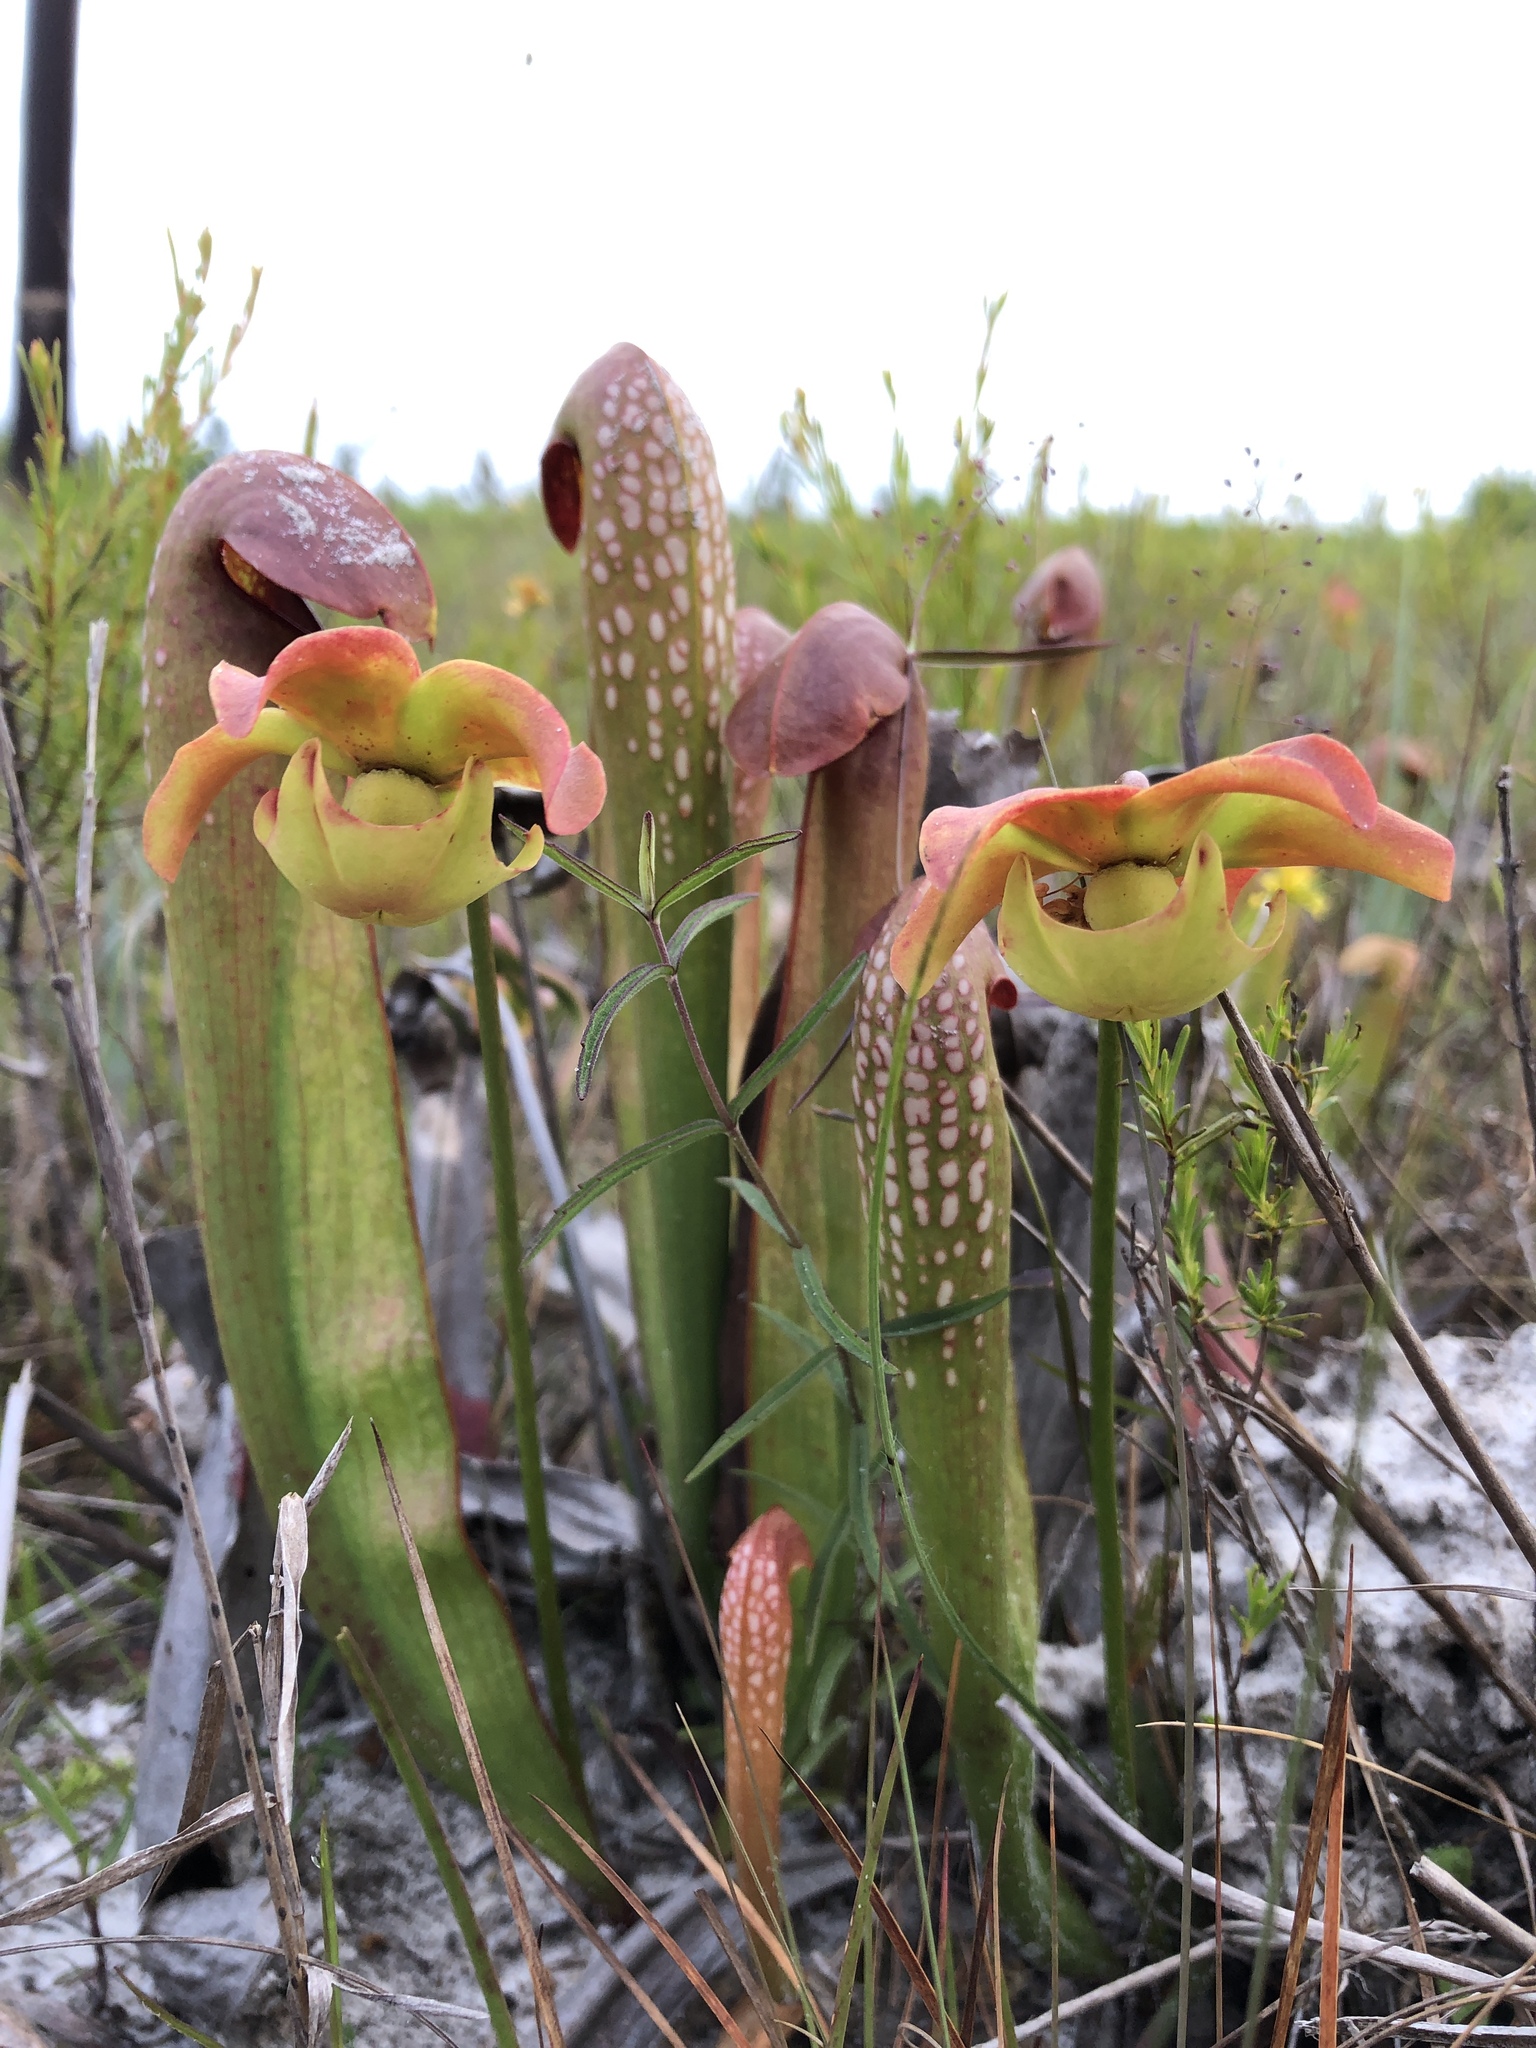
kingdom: Plantae
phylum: Tracheophyta
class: Magnoliopsida
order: Ericales
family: Sarraceniaceae
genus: Sarracenia
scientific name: Sarracenia minor
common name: Rainhat-trumpet
